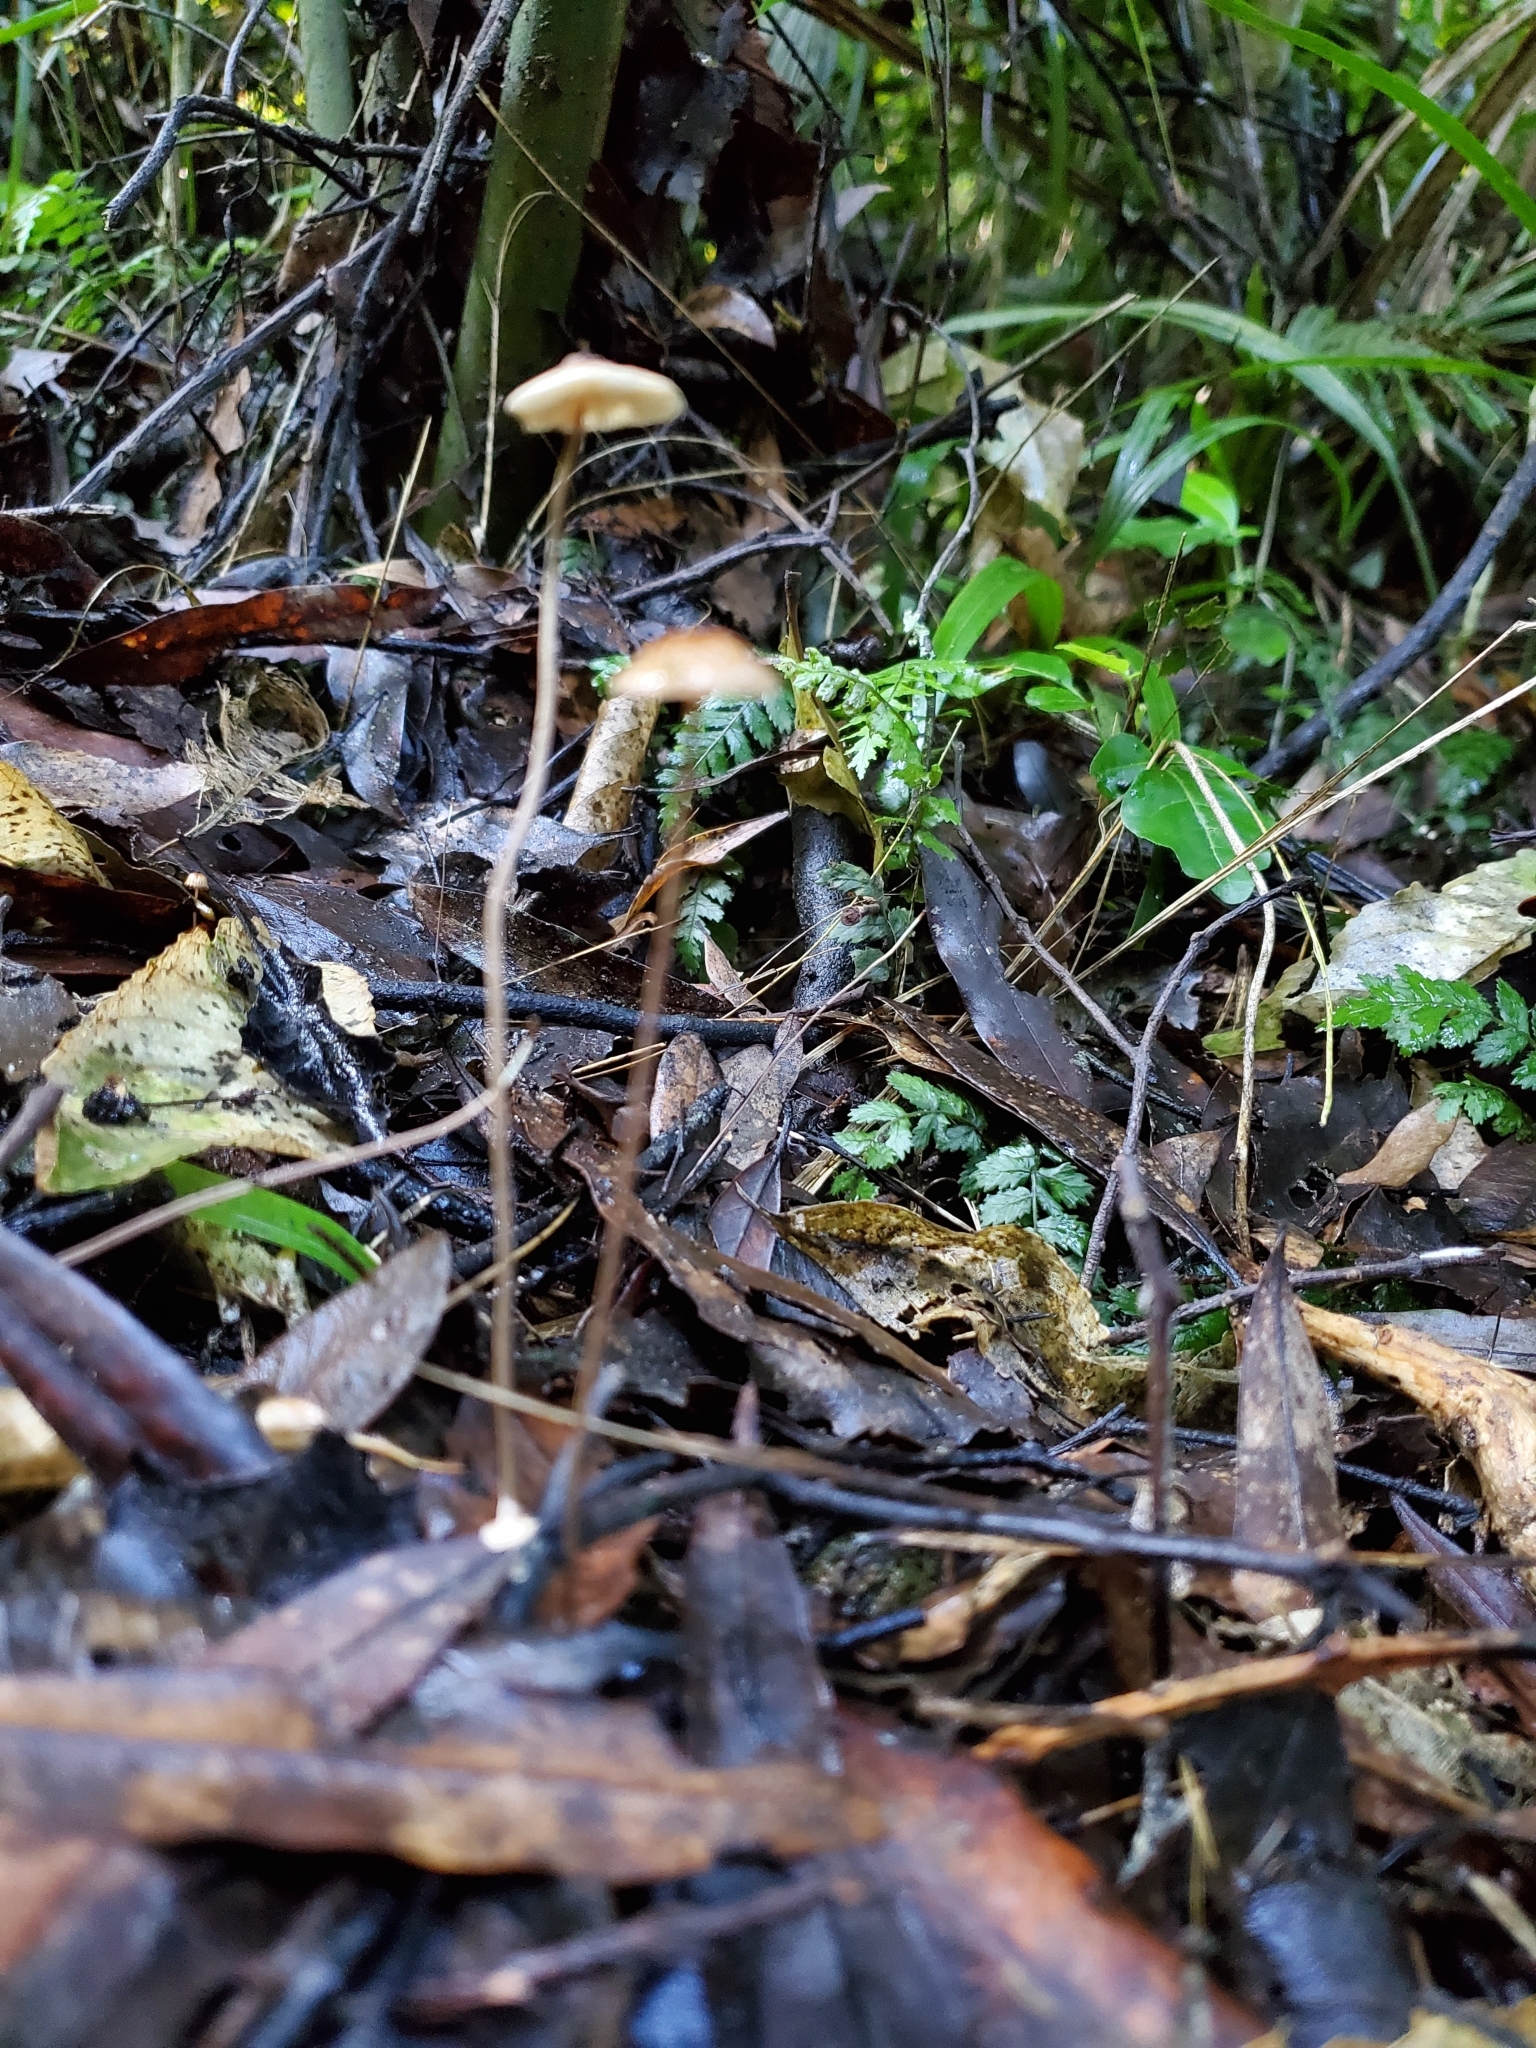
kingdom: Fungi
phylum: Basidiomycota
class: Agaricomycetes
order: Agaricales
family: Marasmiaceae
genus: Crinipellis
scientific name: Crinipellis procera
